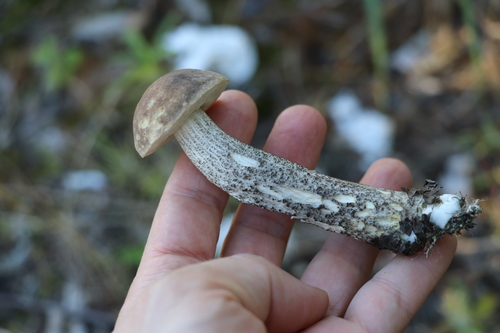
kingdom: Fungi
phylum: Basidiomycota
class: Agaricomycetes
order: Boletales
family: Boletaceae
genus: Leccinum
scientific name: Leccinum
